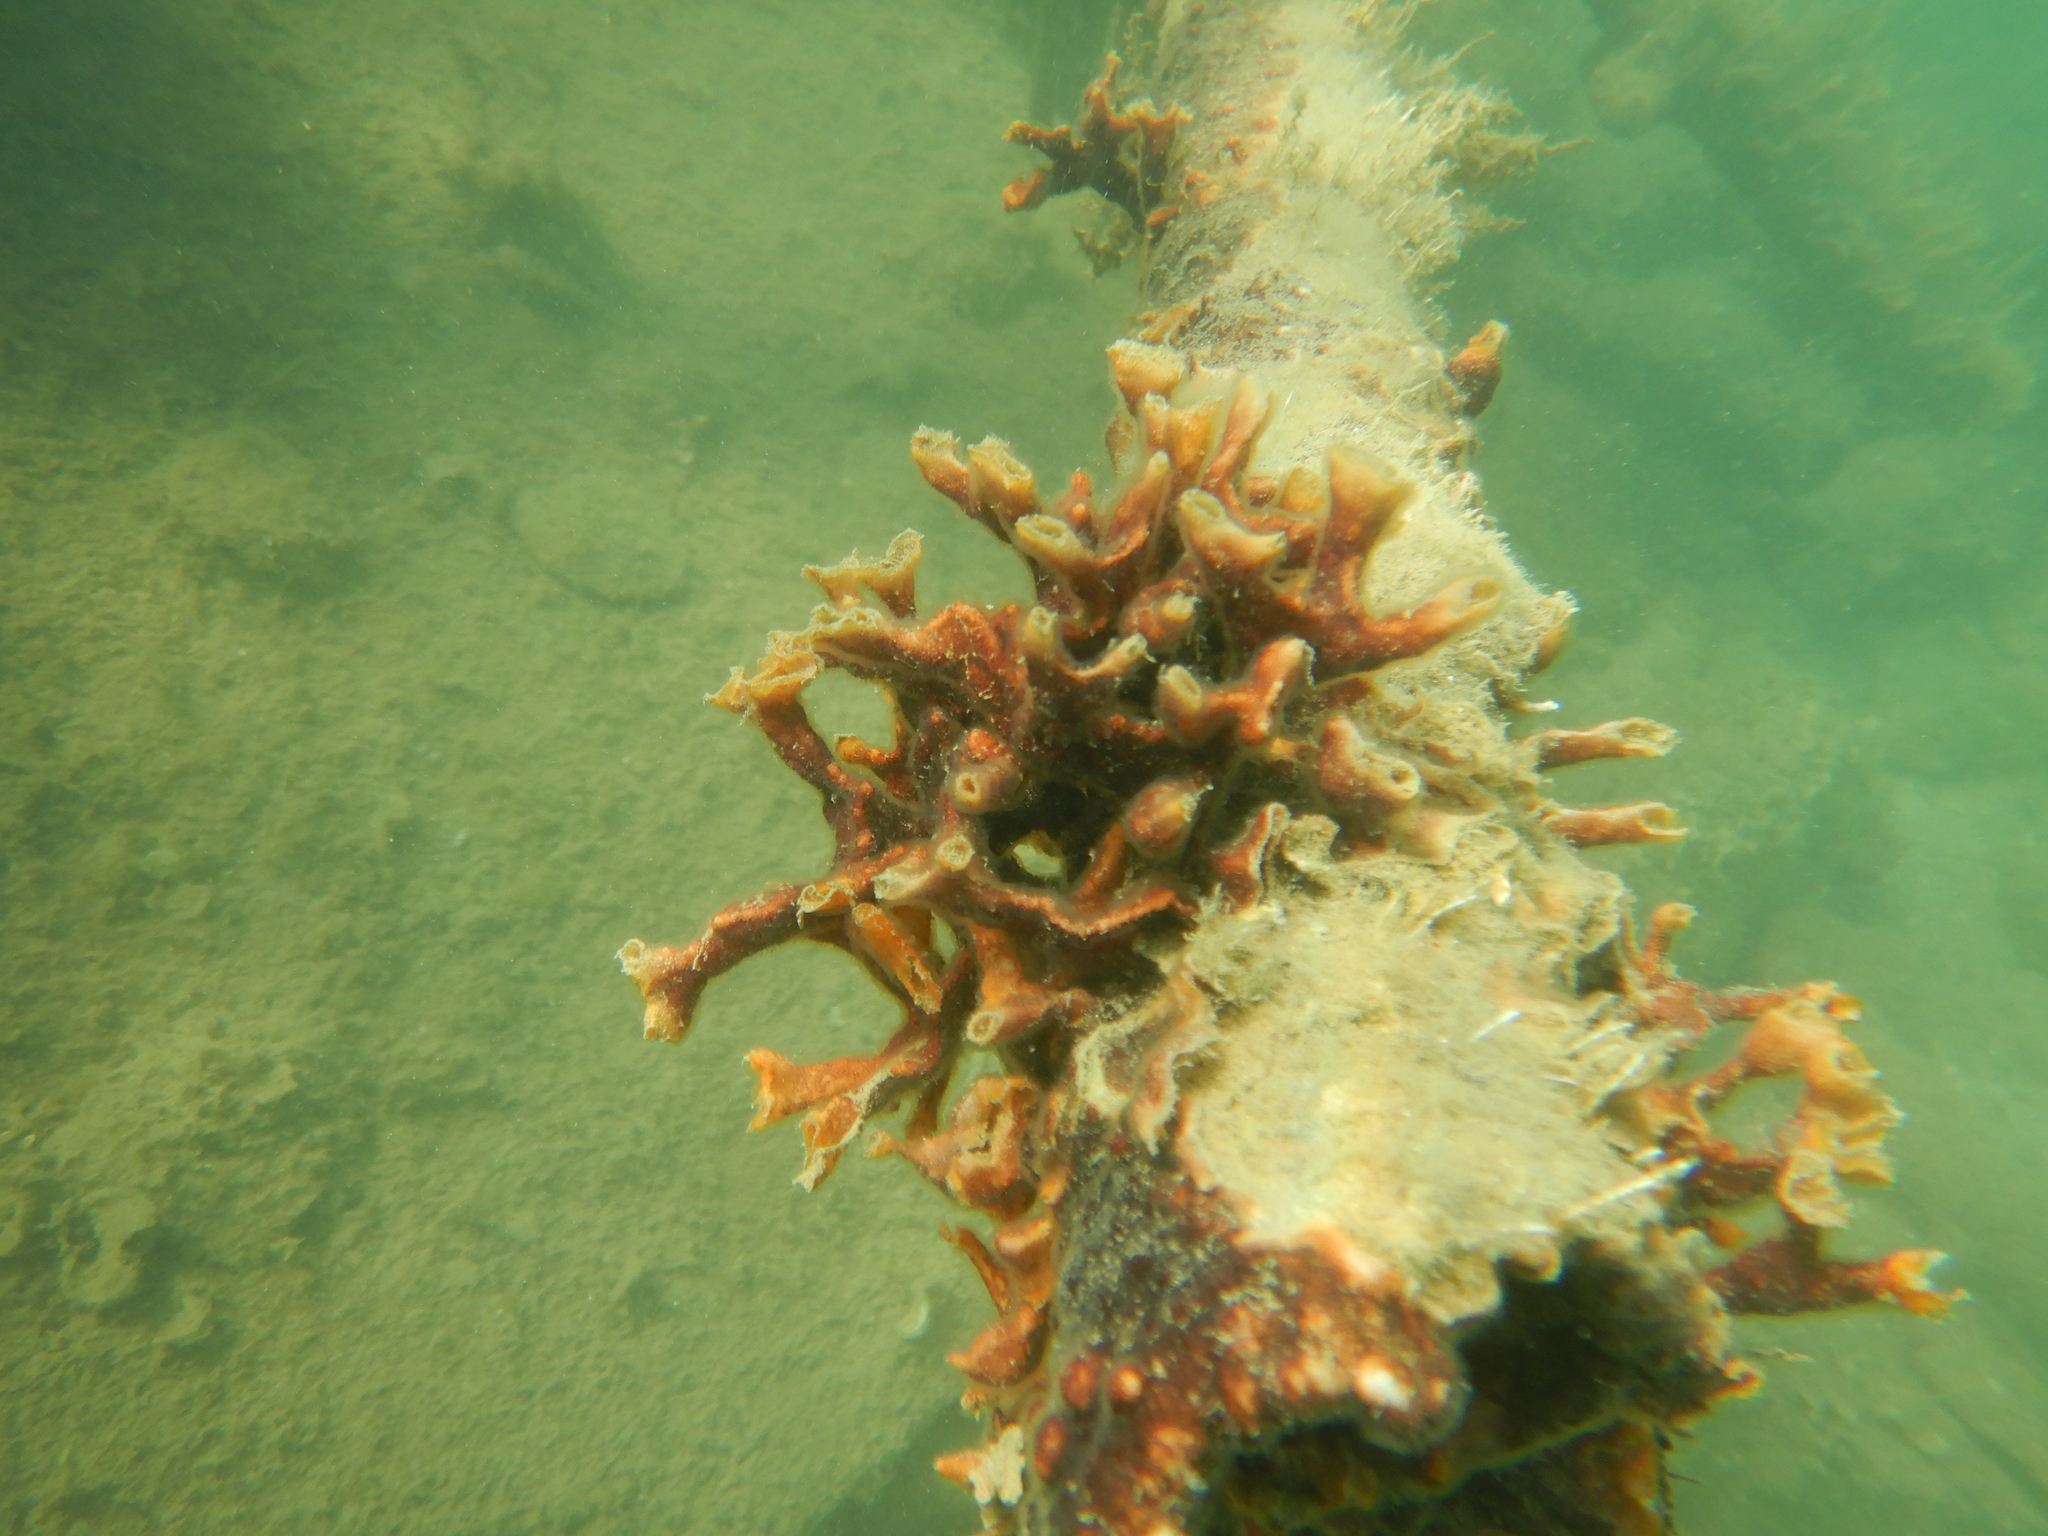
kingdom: Animalia
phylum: Bryozoa
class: Gymnolaemata
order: Cheilostomatida
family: Schizoporellidae
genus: Schizoporella
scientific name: Schizoporella errata
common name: Branching bryozoan
